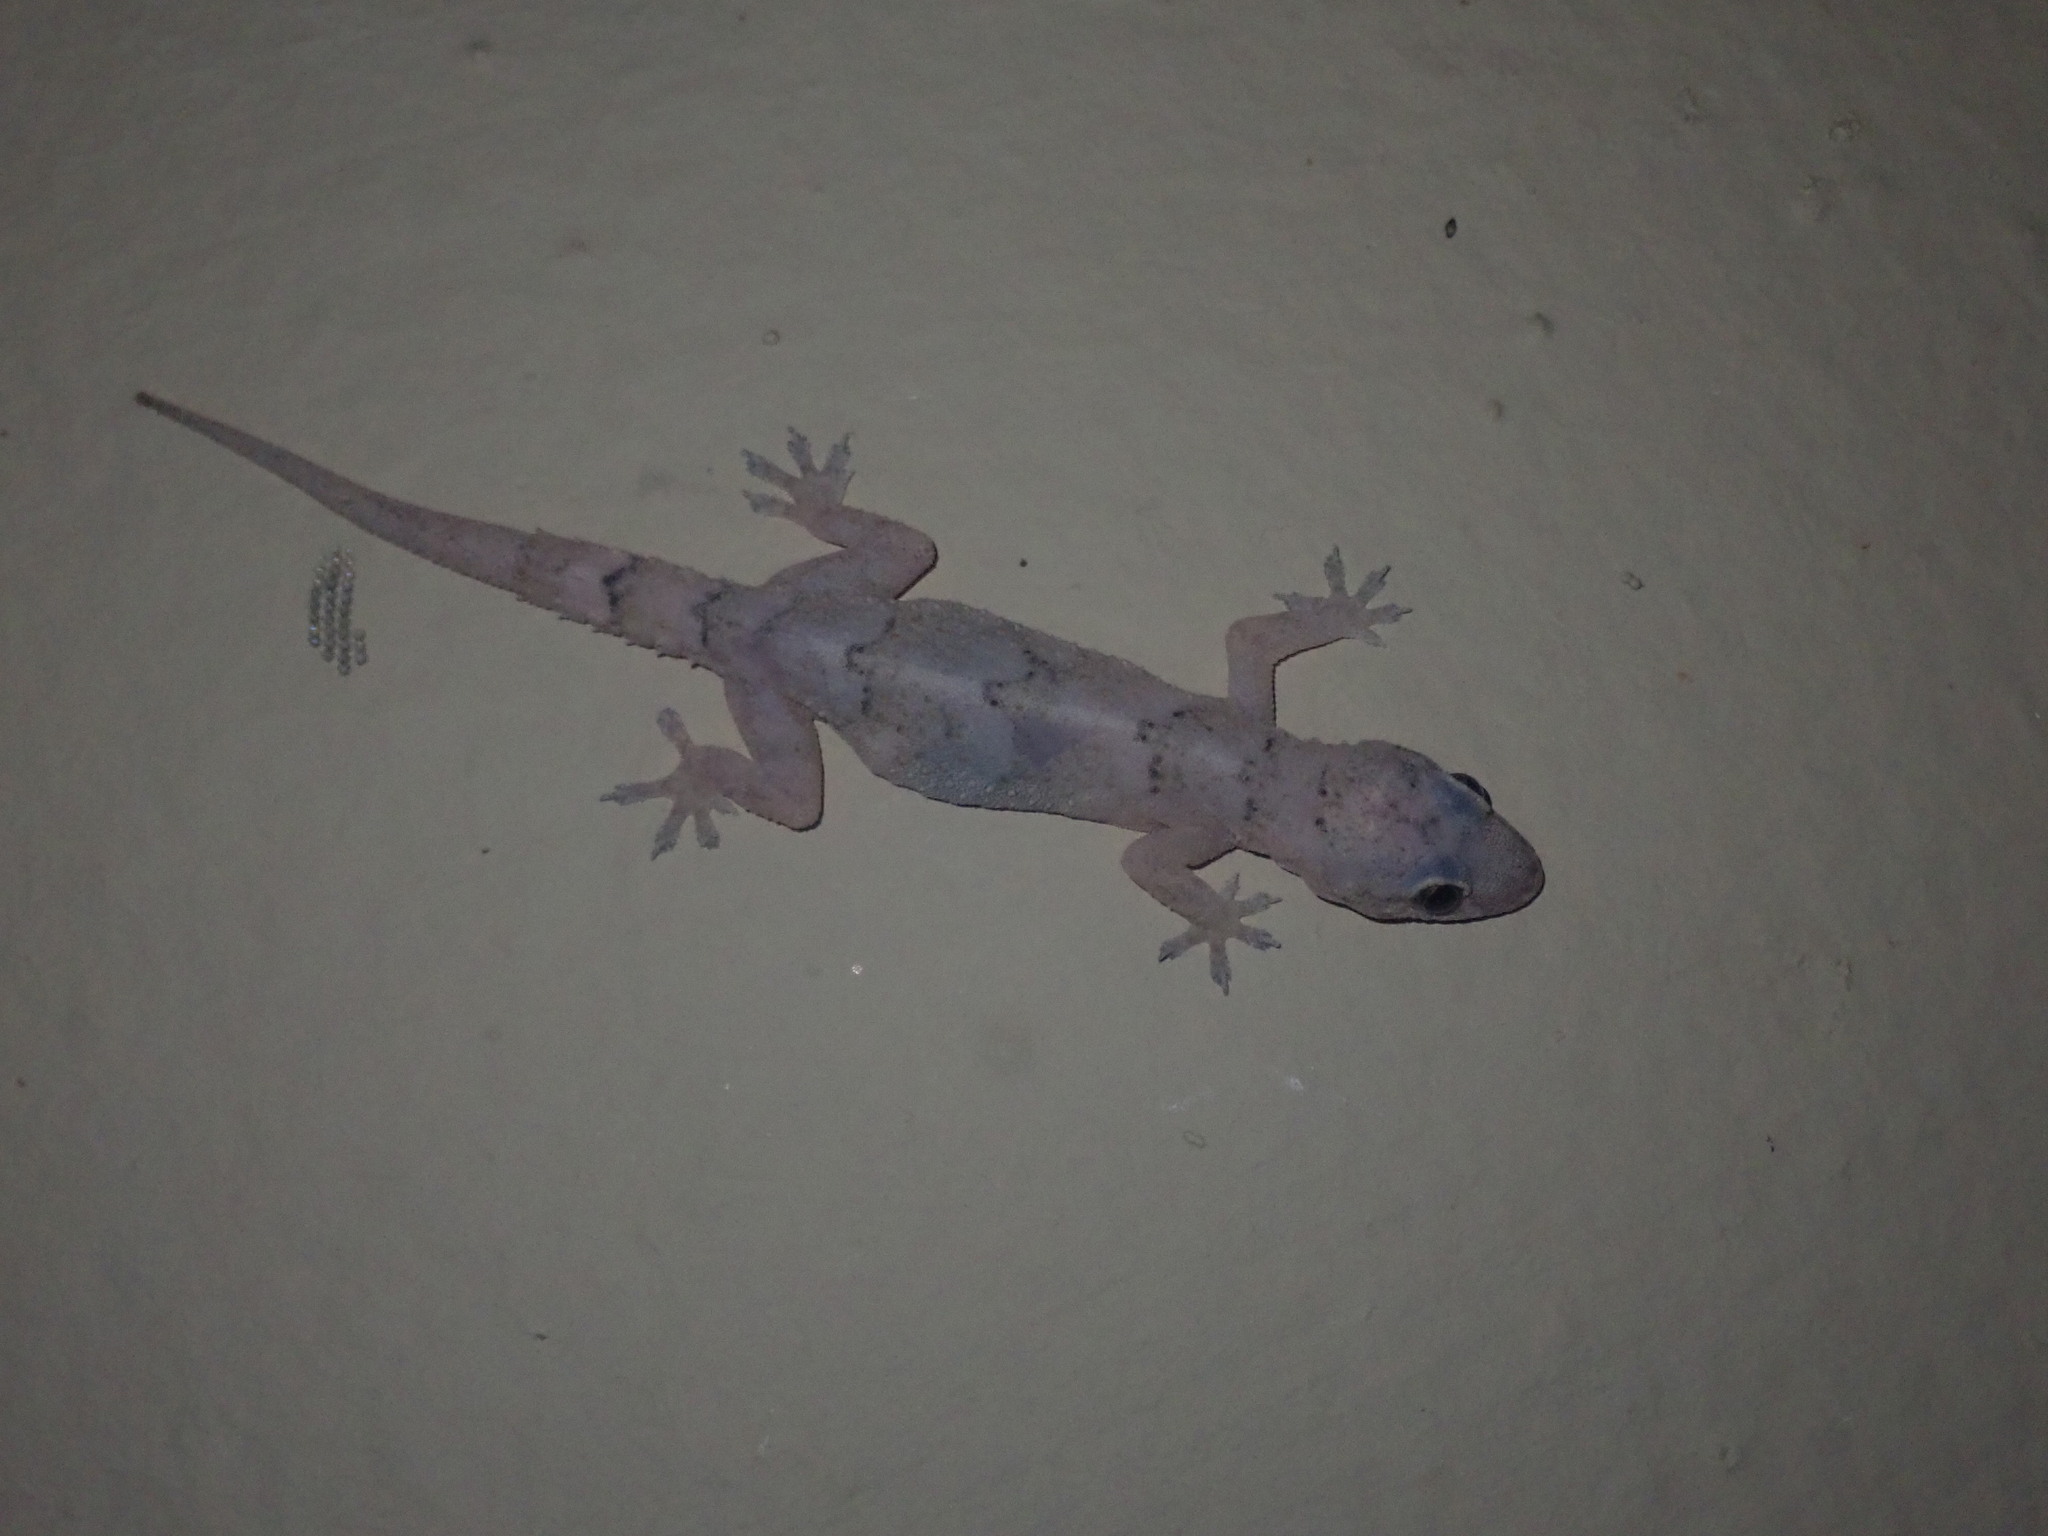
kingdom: Animalia
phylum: Chordata
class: Squamata
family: Gekkonidae
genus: Hemidactylus
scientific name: Hemidactylus mabouia
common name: House gecko
